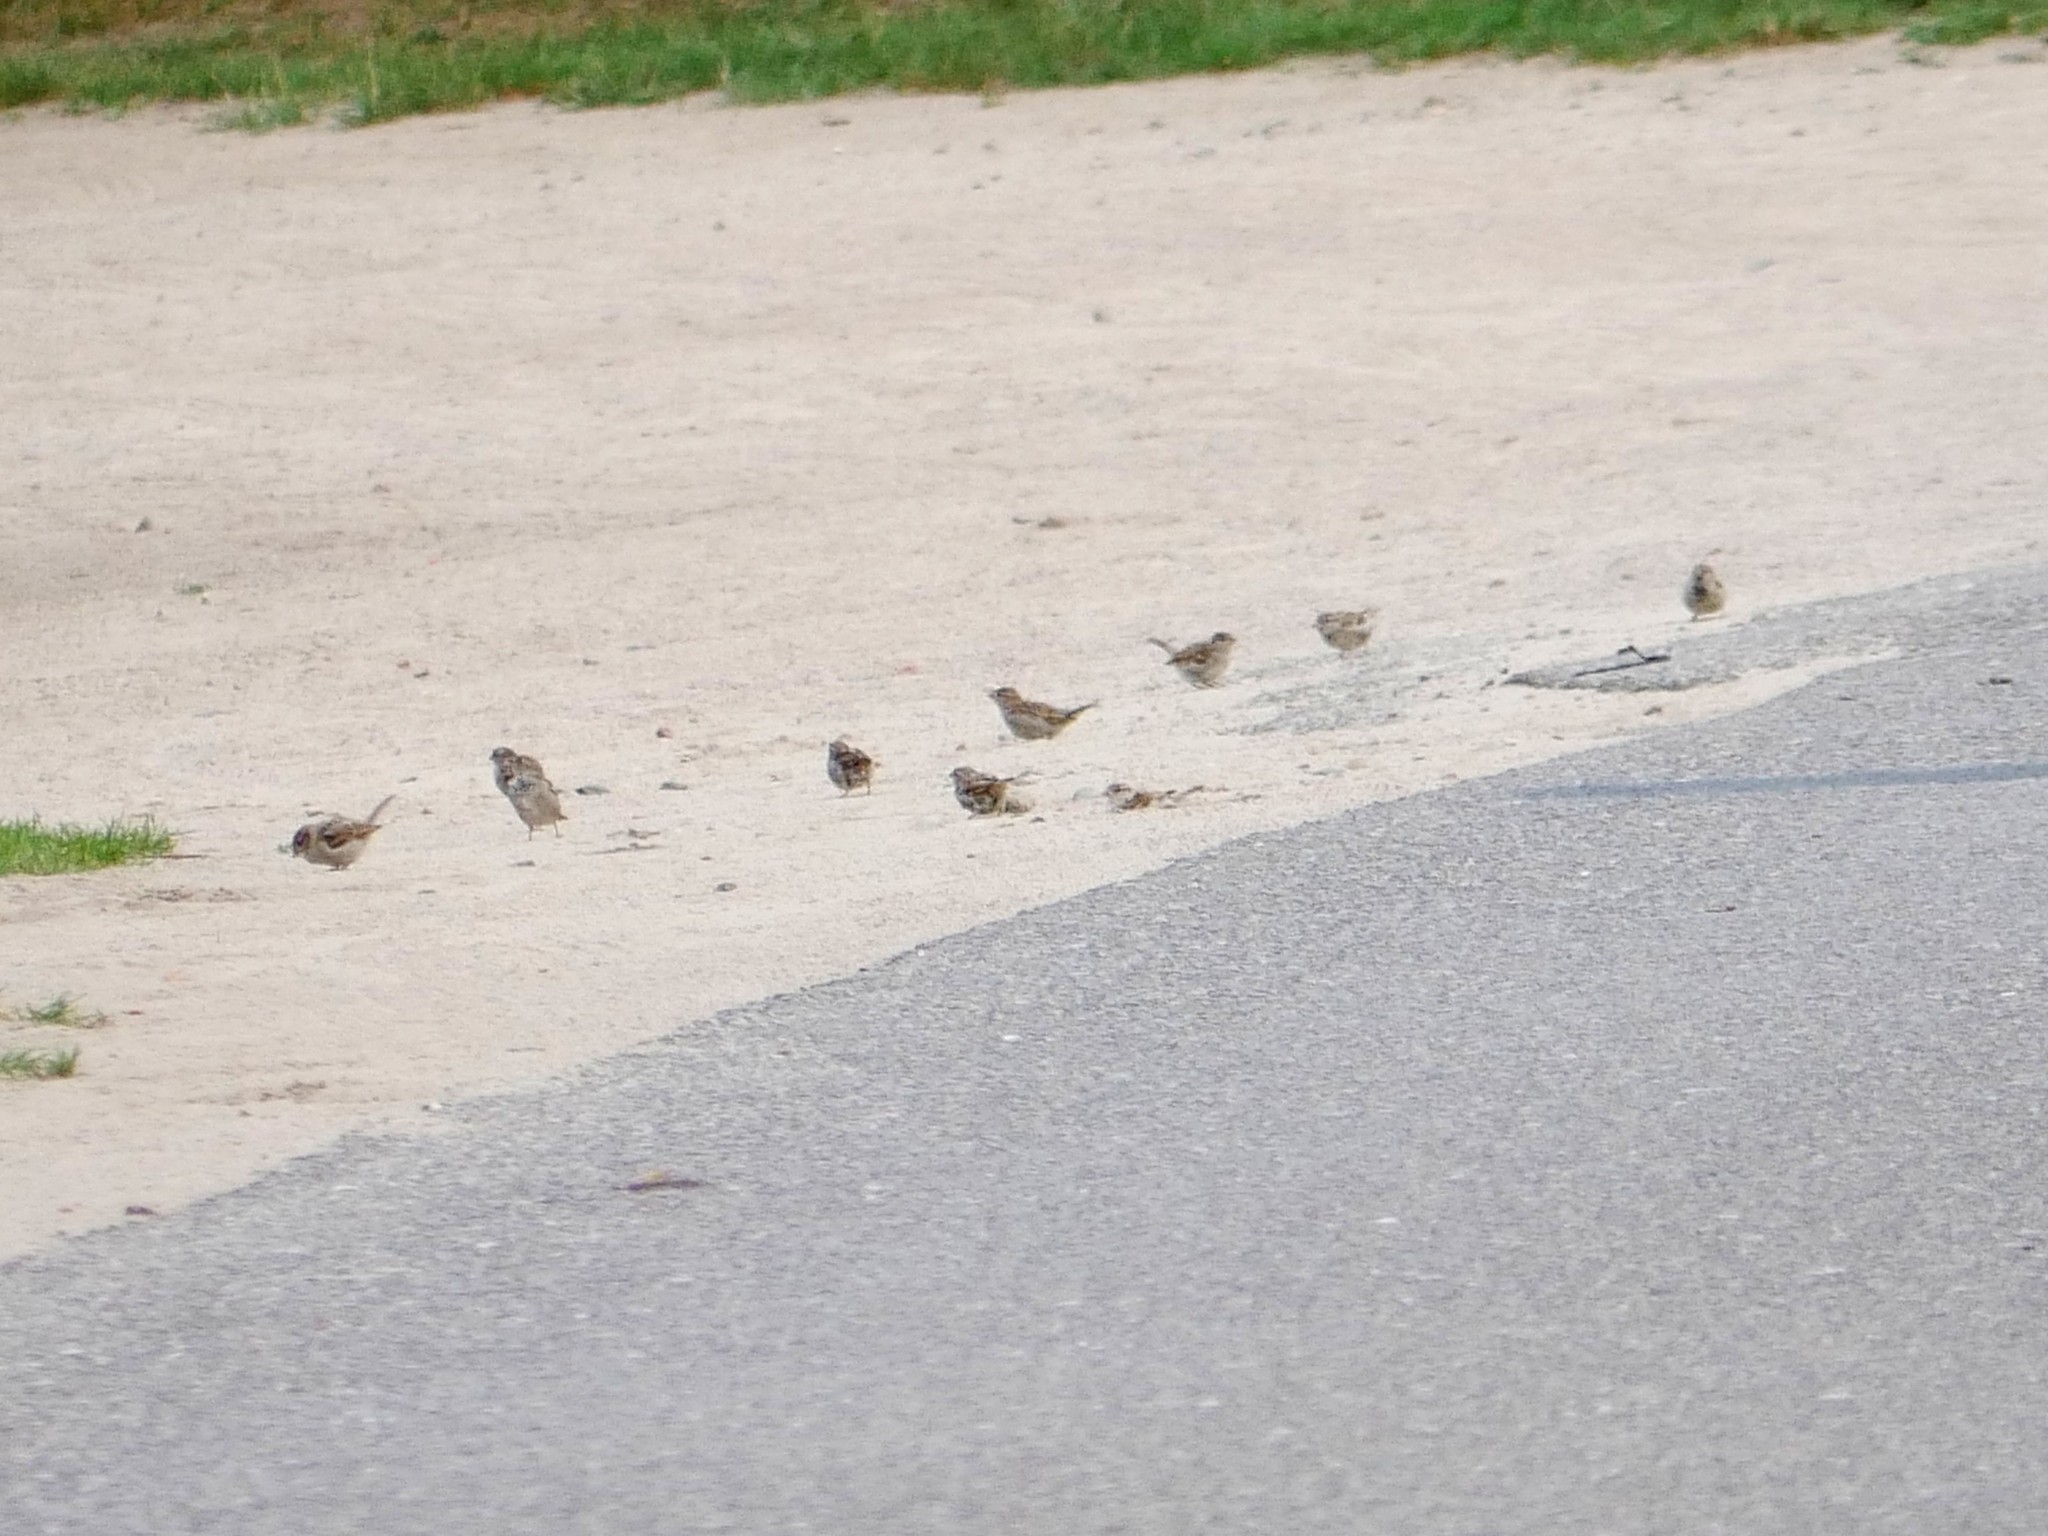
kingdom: Animalia
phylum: Chordata
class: Aves
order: Passeriformes
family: Passeridae
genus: Passer
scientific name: Passer domesticus
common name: House sparrow
